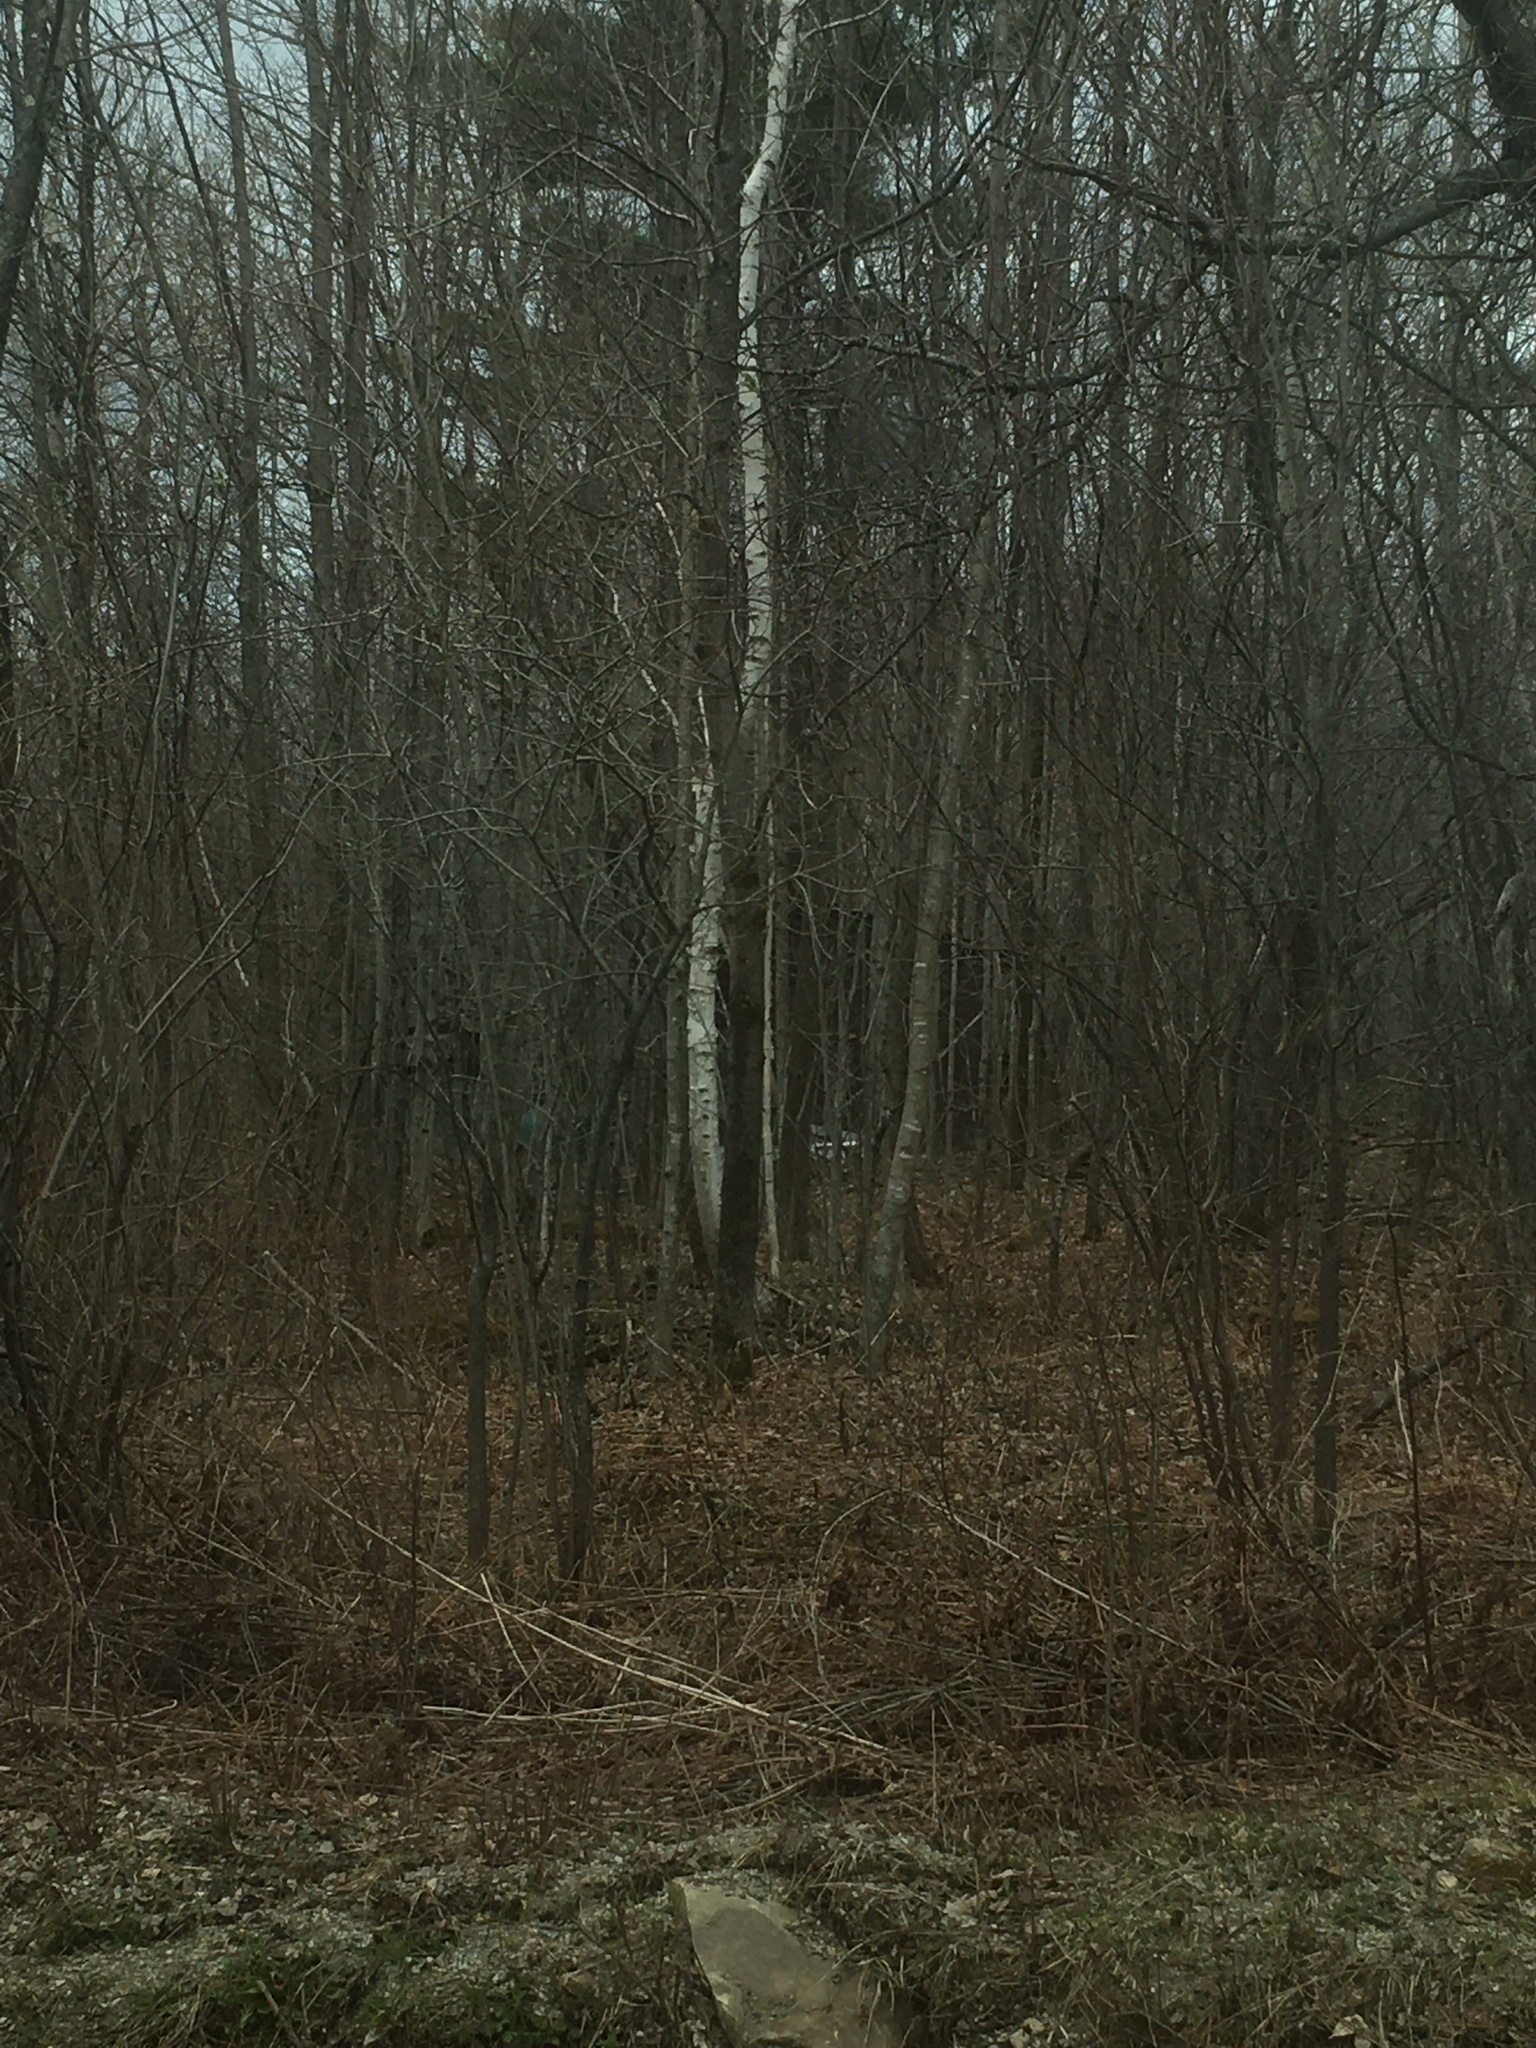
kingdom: Plantae
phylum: Tracheophyta
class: Magnoliopsida
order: Fagales
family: Betulaceae
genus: Betula
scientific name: Betula papyrifera
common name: Paper birch
